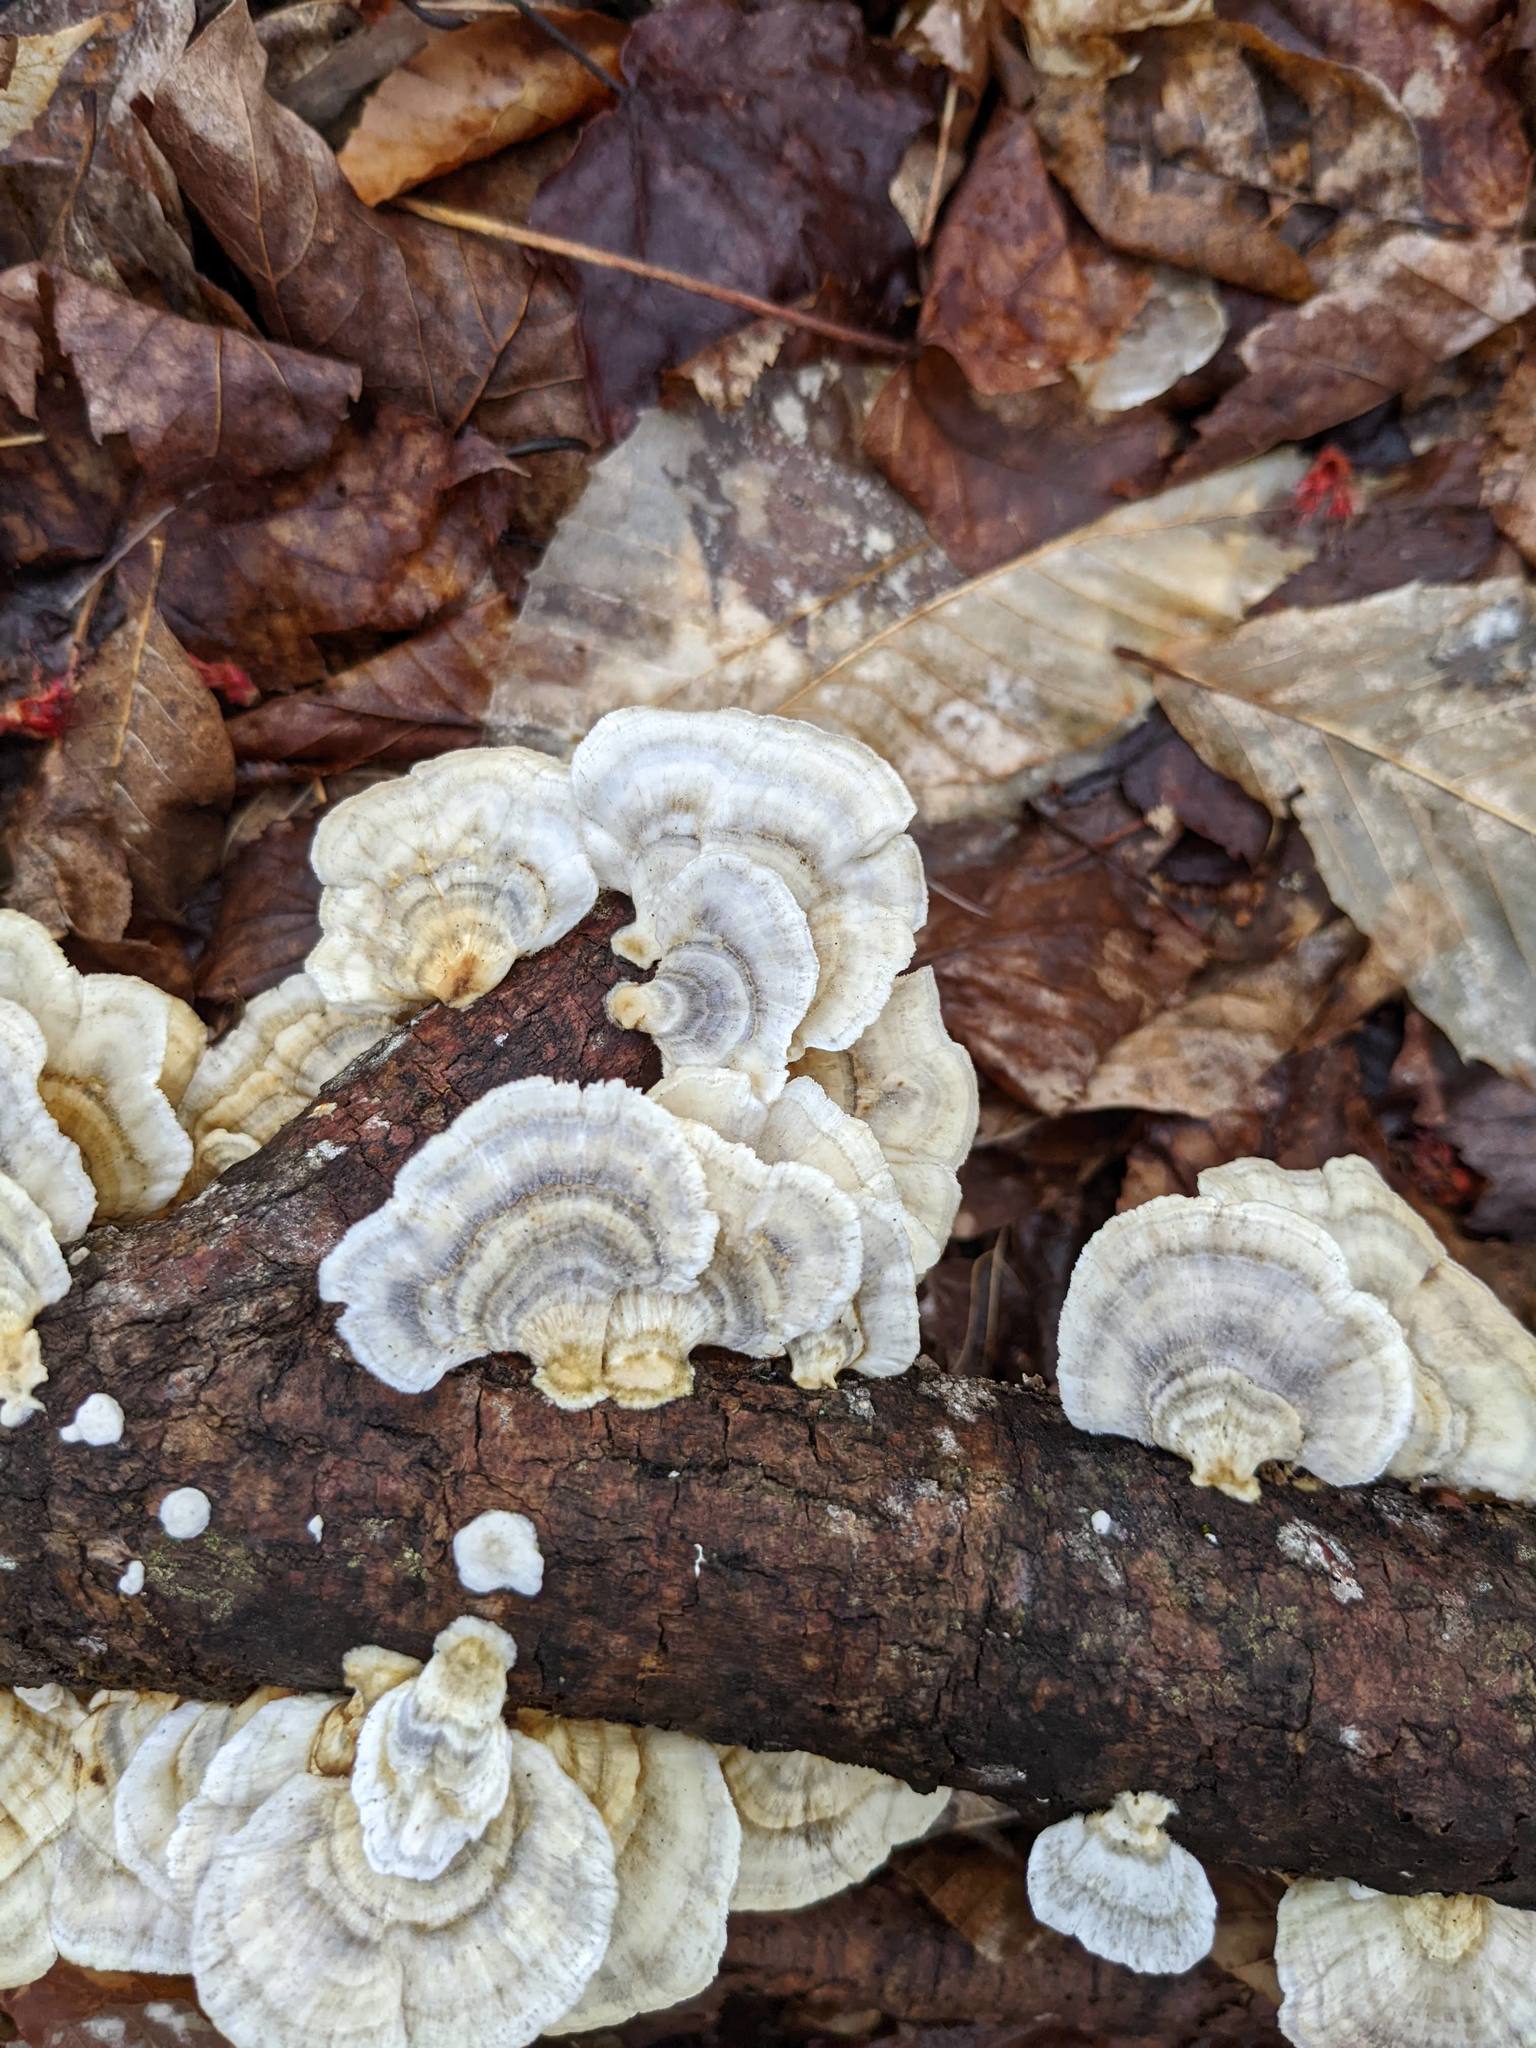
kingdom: Fungi
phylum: Basidiomycota
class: Agaricomycetes
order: Polyporales
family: Polyporaceae
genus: Trametes
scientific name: Trametes versicolor
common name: Turkeytail
